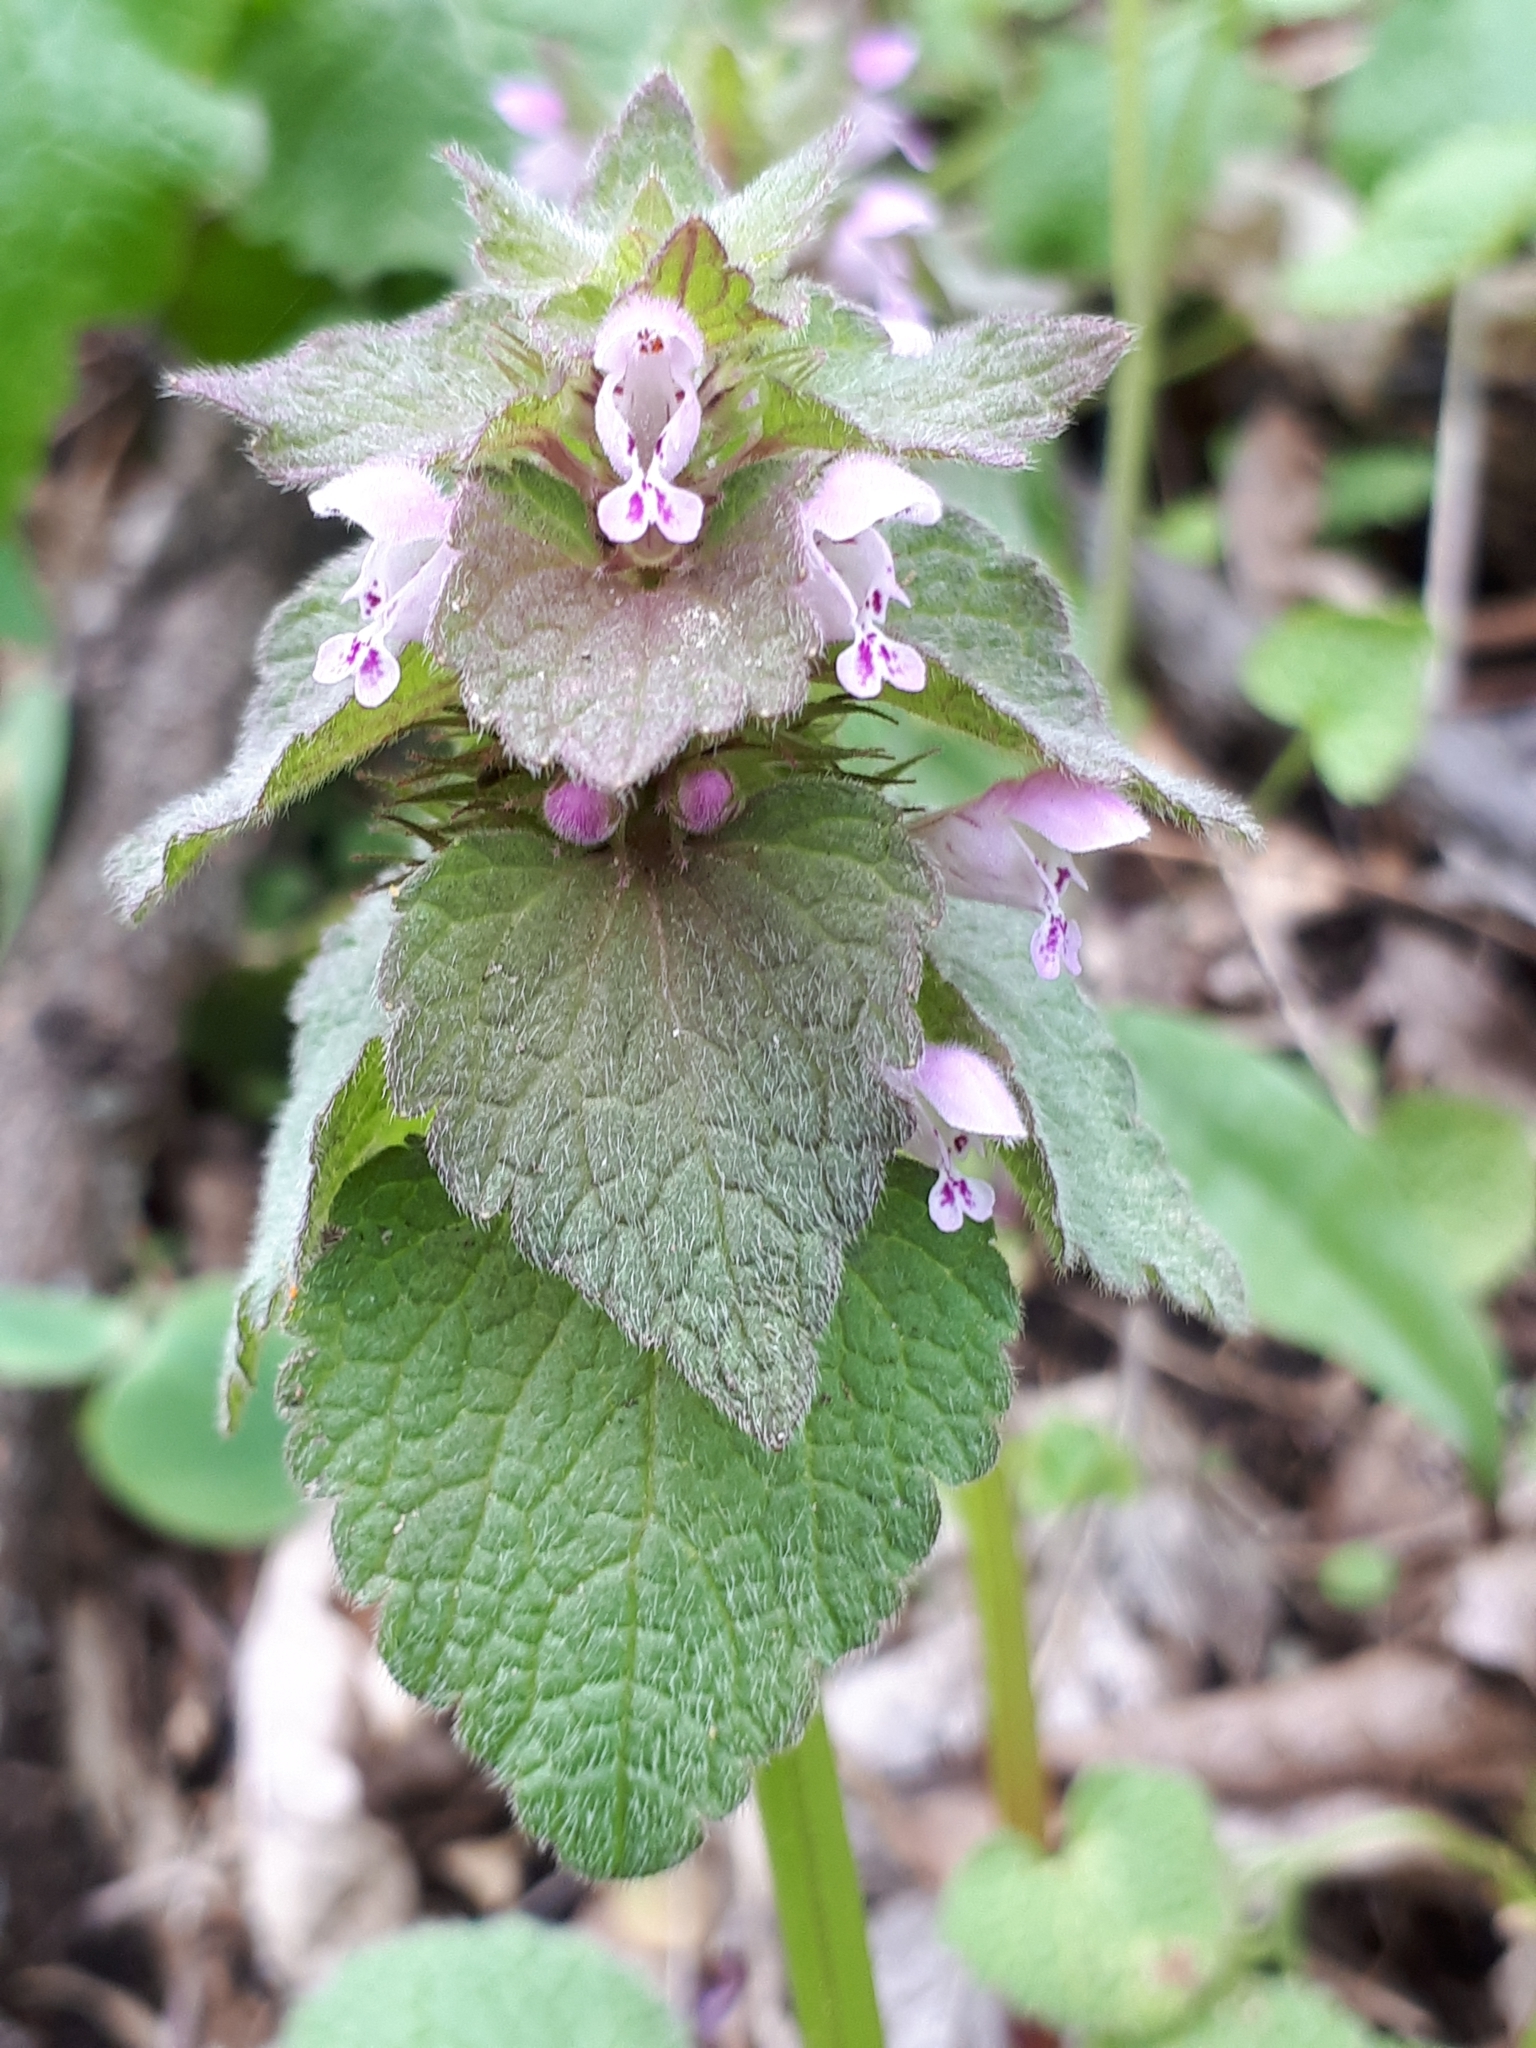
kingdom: Plantae
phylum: Tracheophyta
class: Magnoliopsida
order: Lamiales
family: Lamiaceae
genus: Lamium
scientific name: Lamium purpureum
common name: Red dead-nettle
